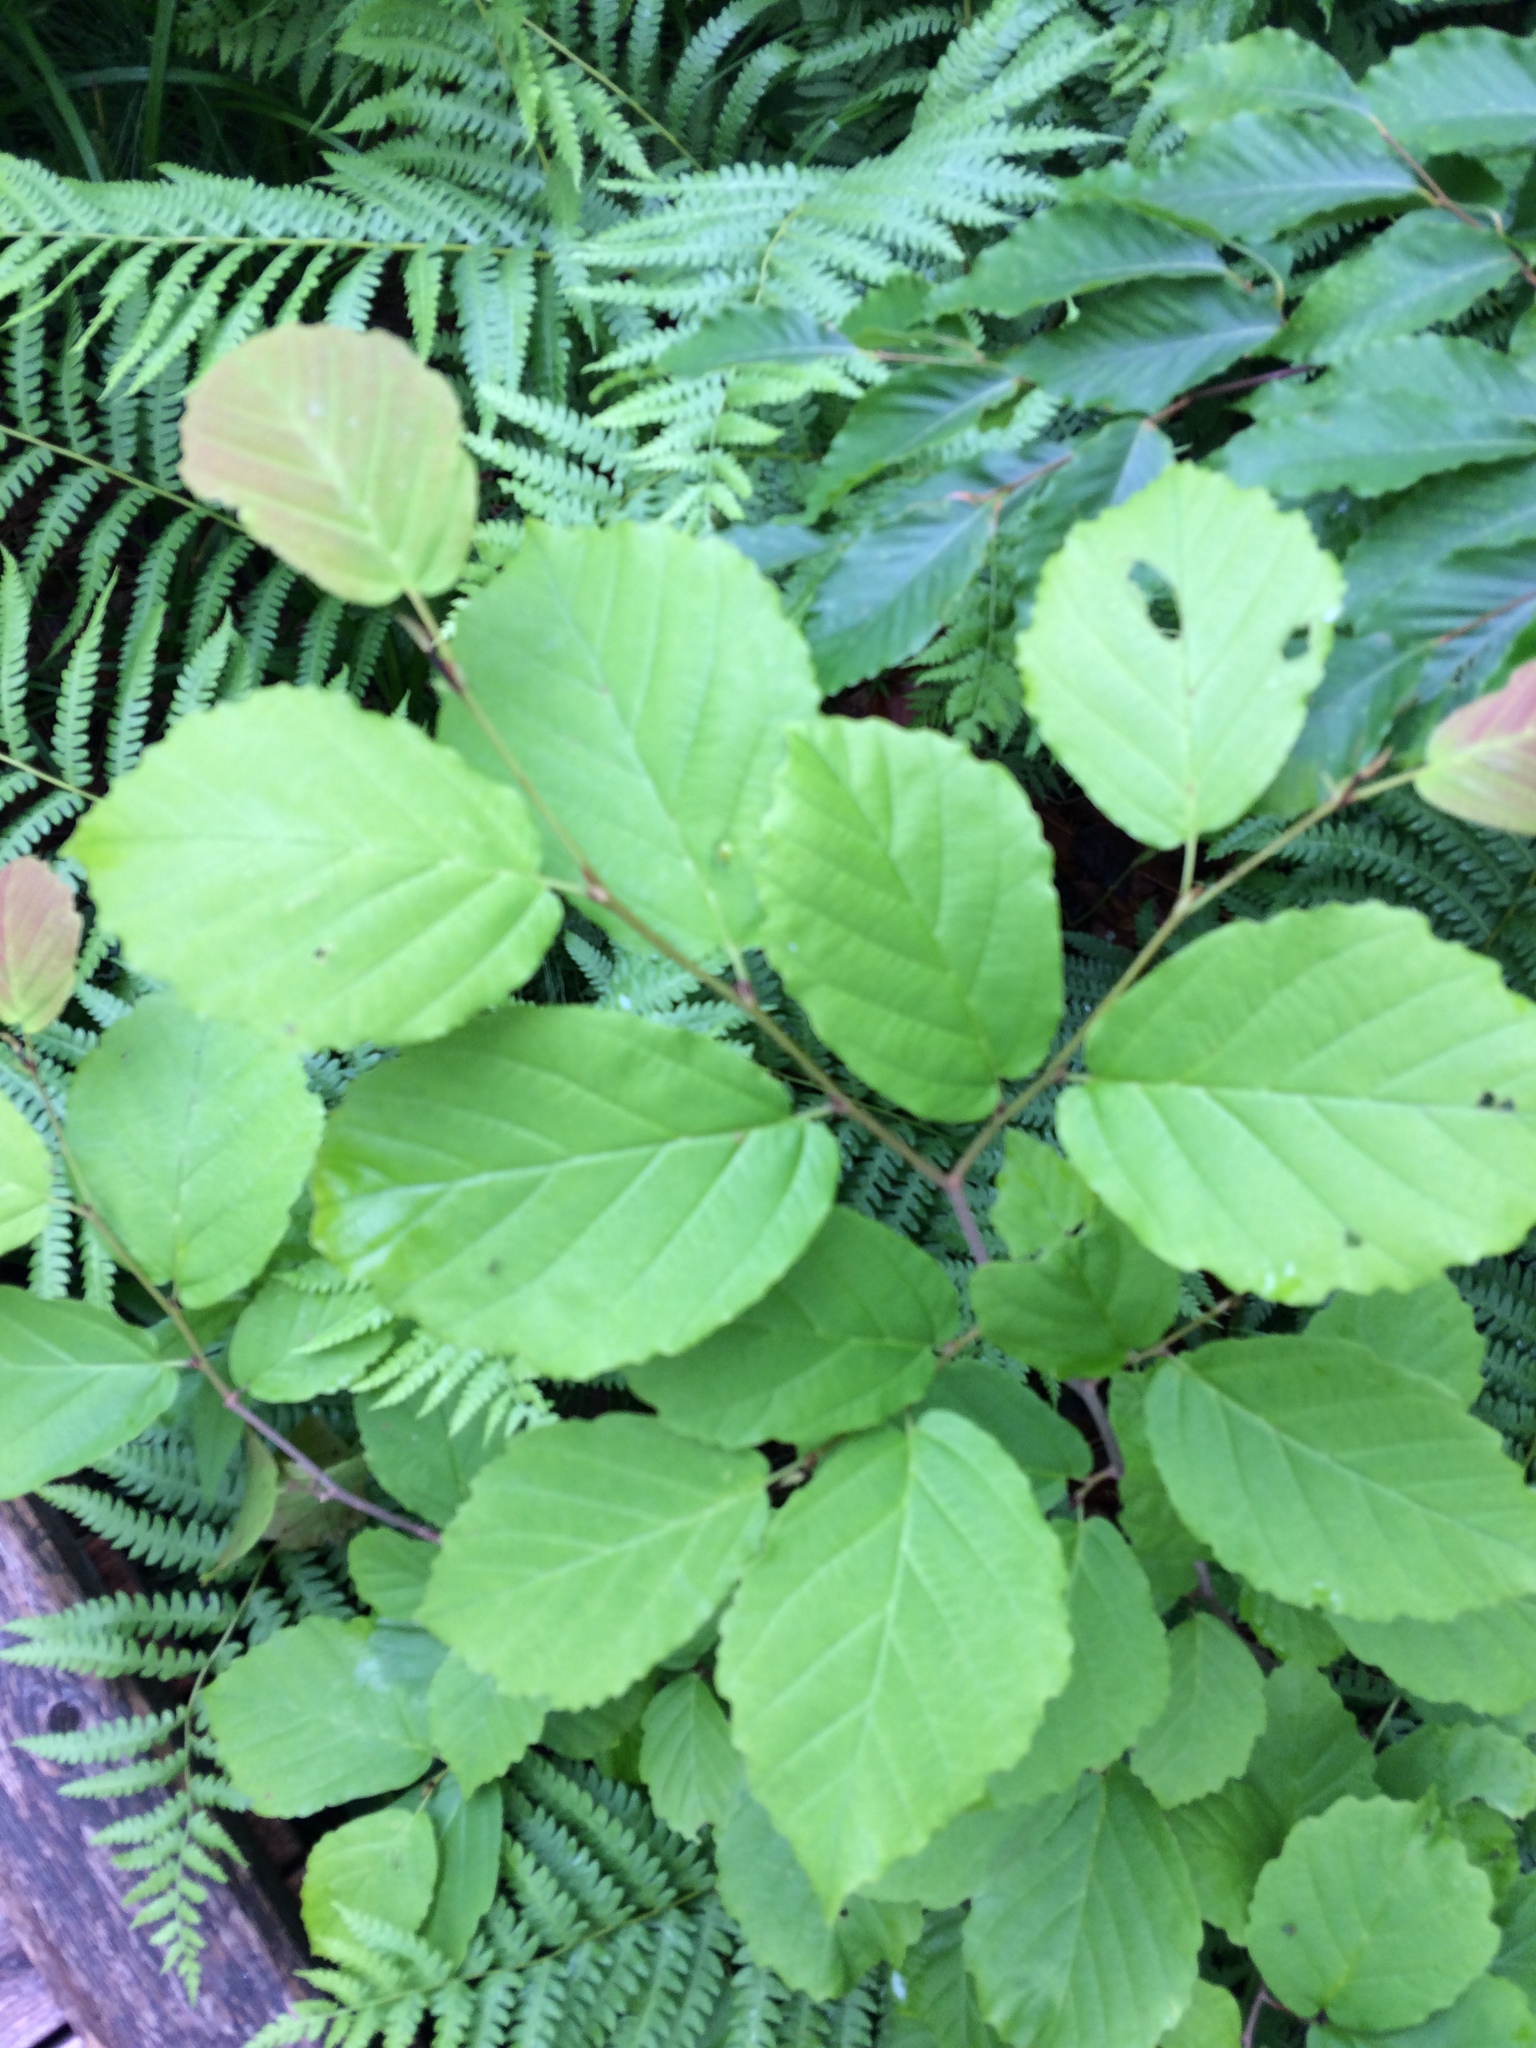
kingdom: Plantae
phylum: Tracheophyta
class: Magnoliopsida
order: Saxifragales
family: Hamamelidaceae
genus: Hamamelis
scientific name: Hamamelis virginiana
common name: Witch-hazel
